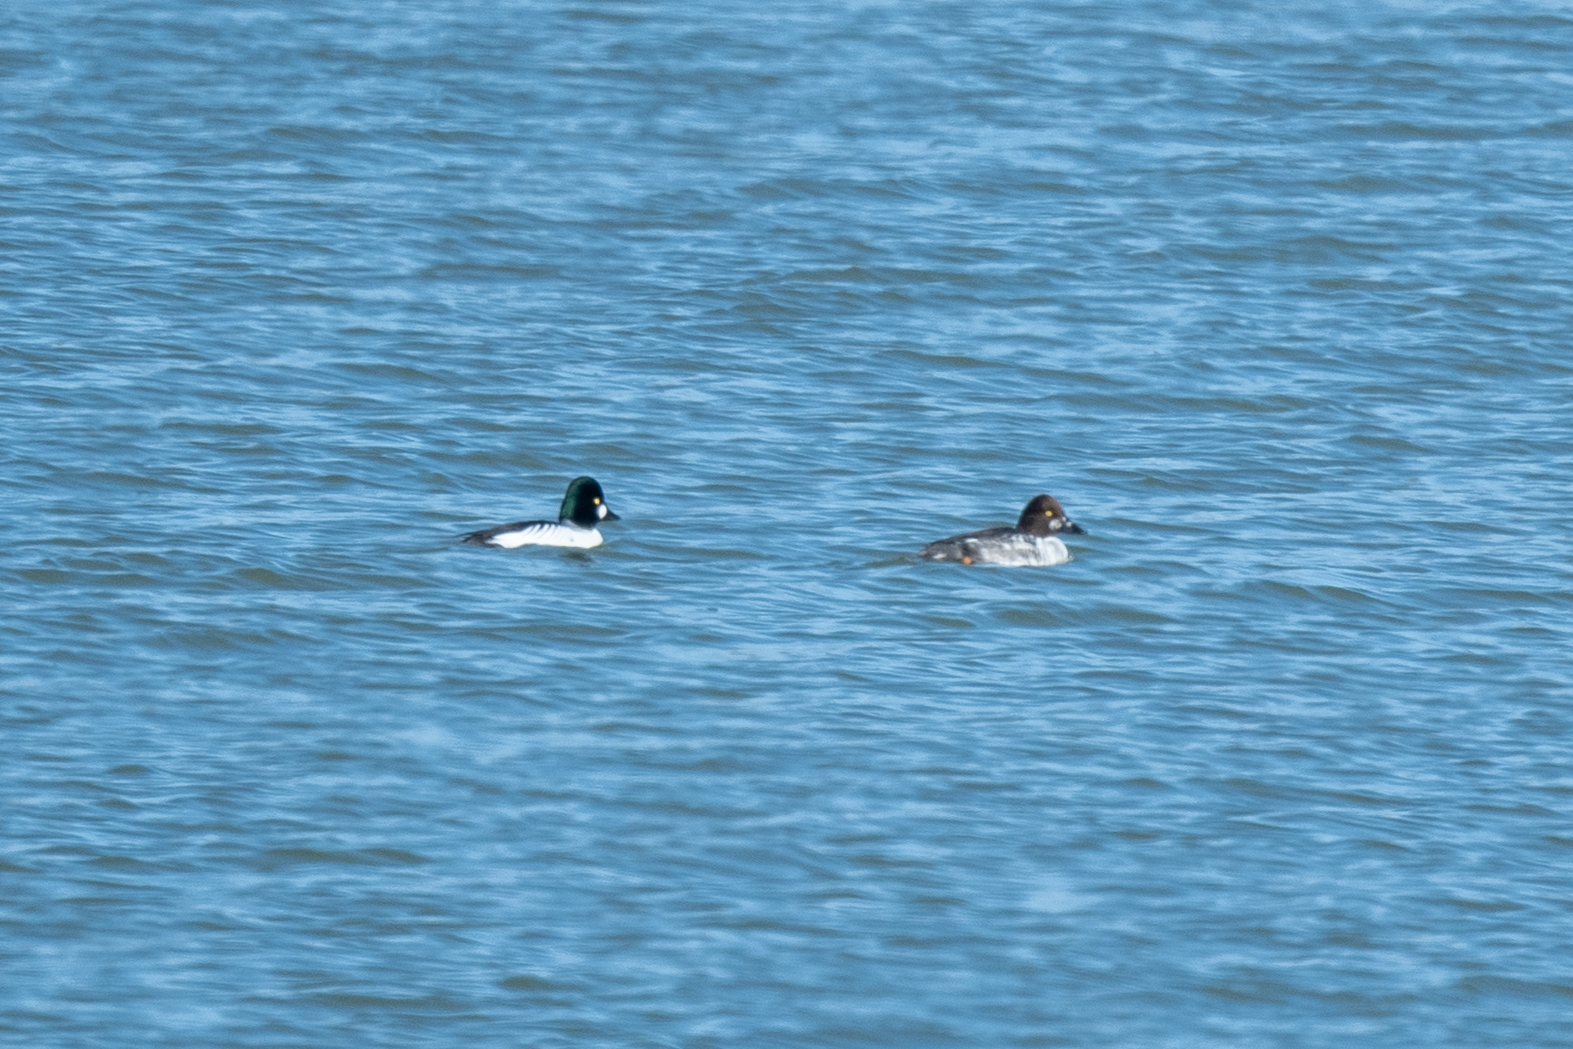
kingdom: Animalia
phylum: Chordata
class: Aves
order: Anseriformes
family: Anatidae
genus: Bucephala
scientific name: Bucephala clangula
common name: Common goldeneye
